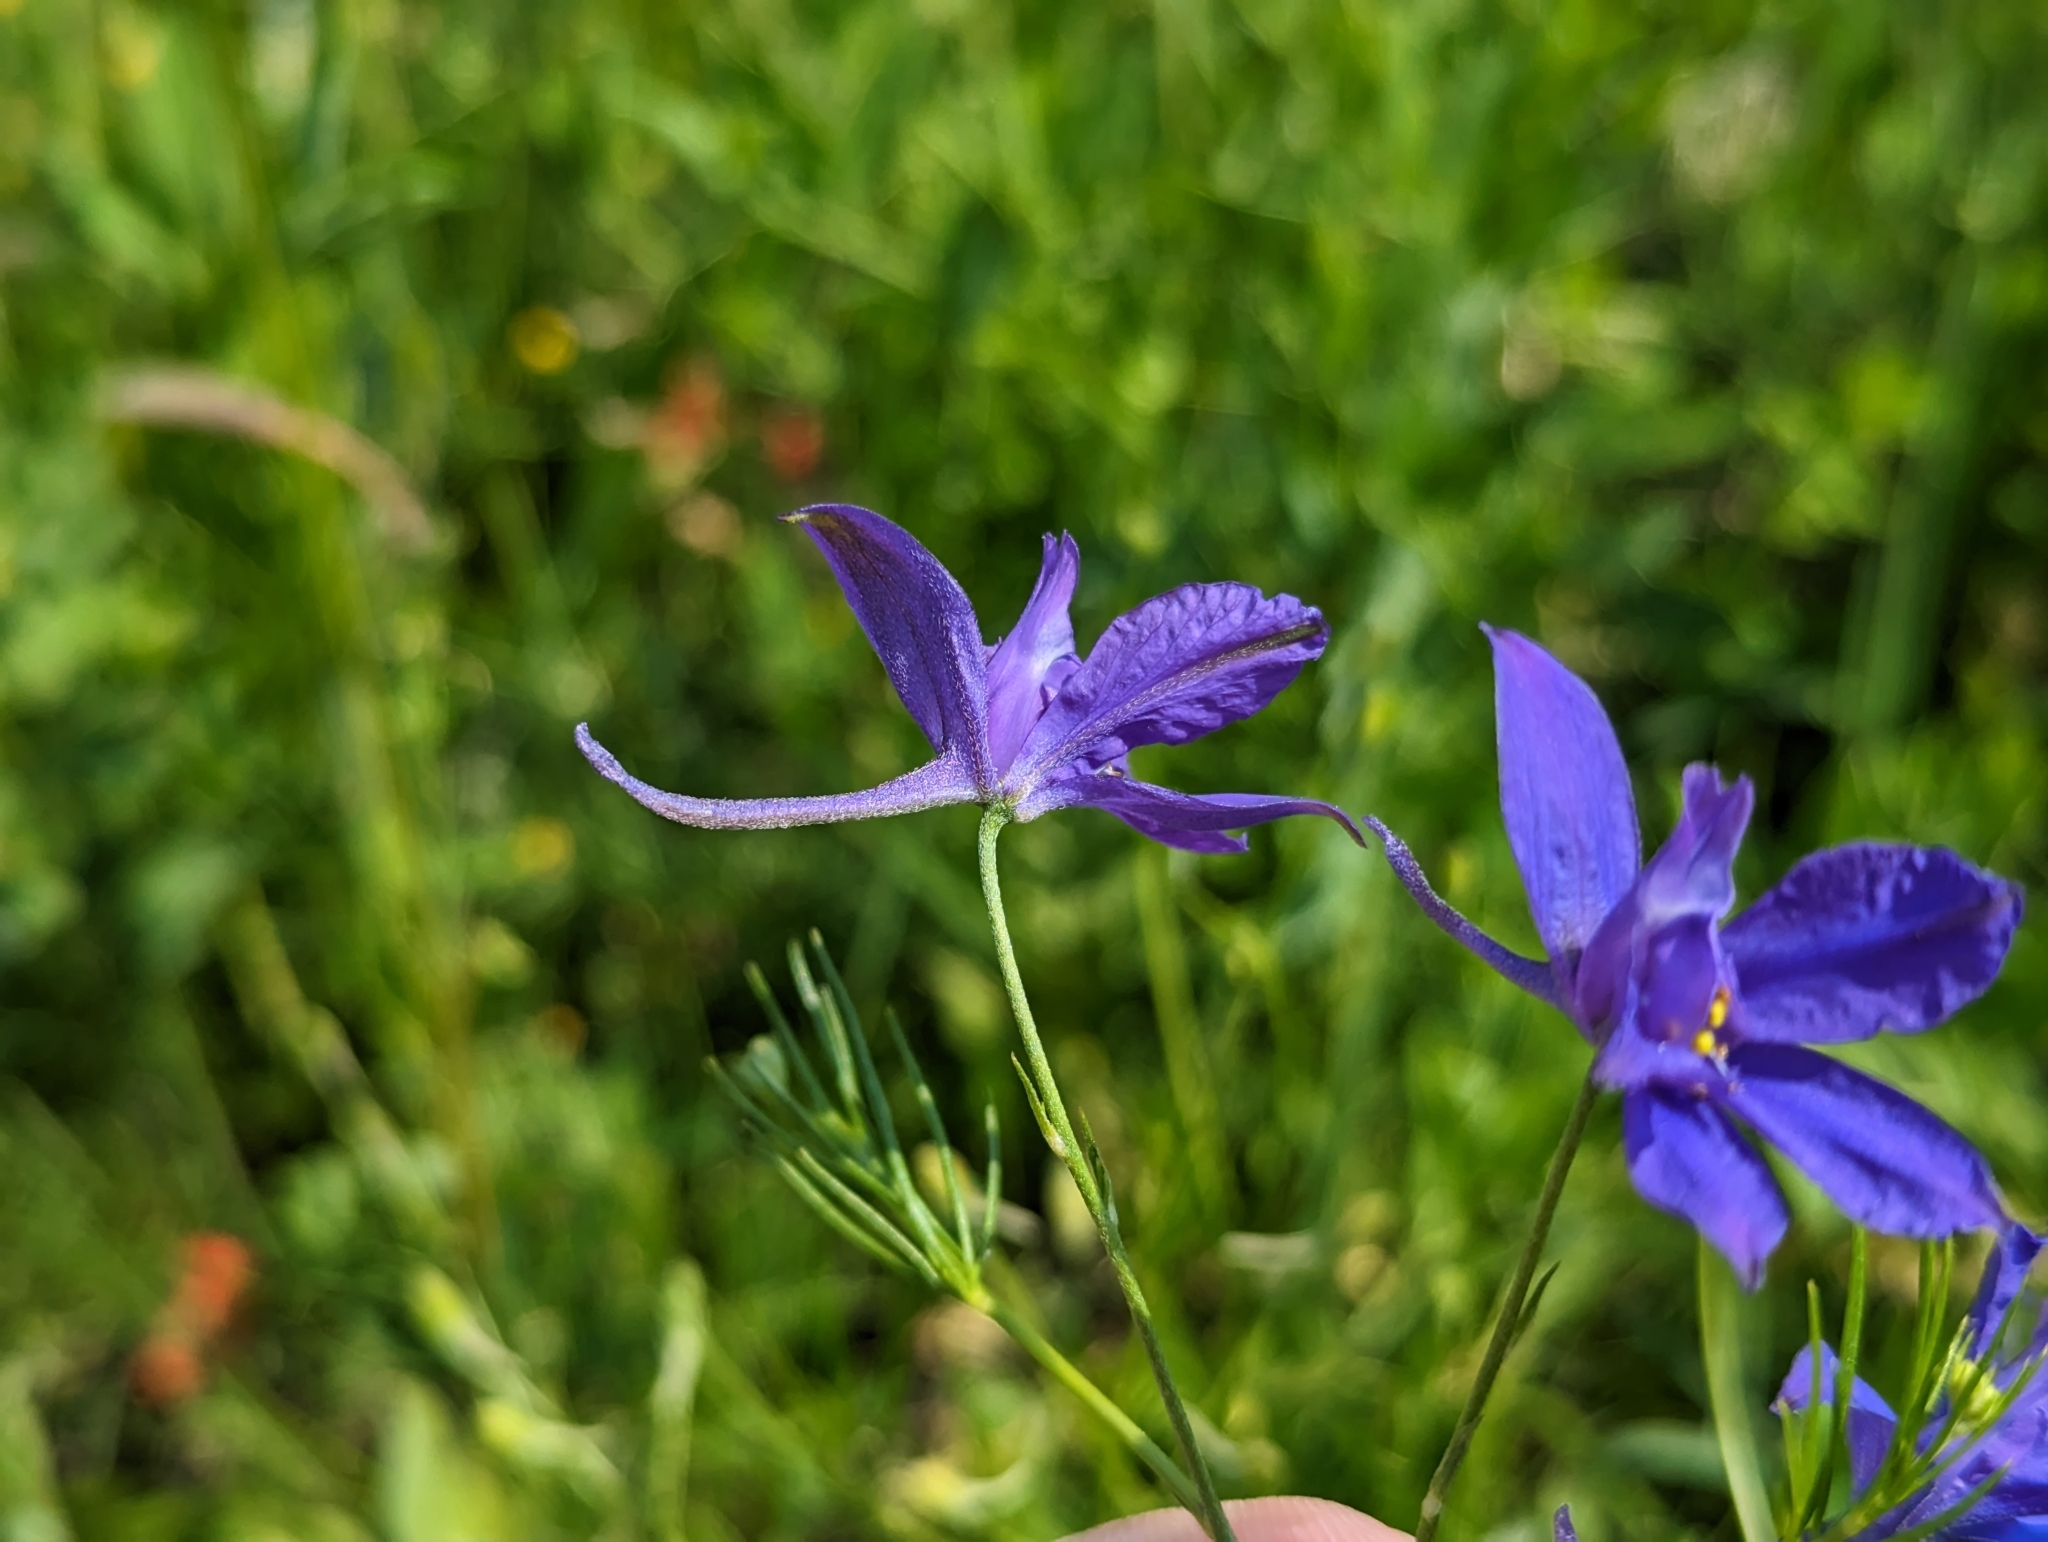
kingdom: Plantae
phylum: Tracheophyta
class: Magnoliopsida
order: Ranunculales
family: Ranunculaceae
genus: Delphinium
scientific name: Delphinium consolida
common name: Branching larkspur
